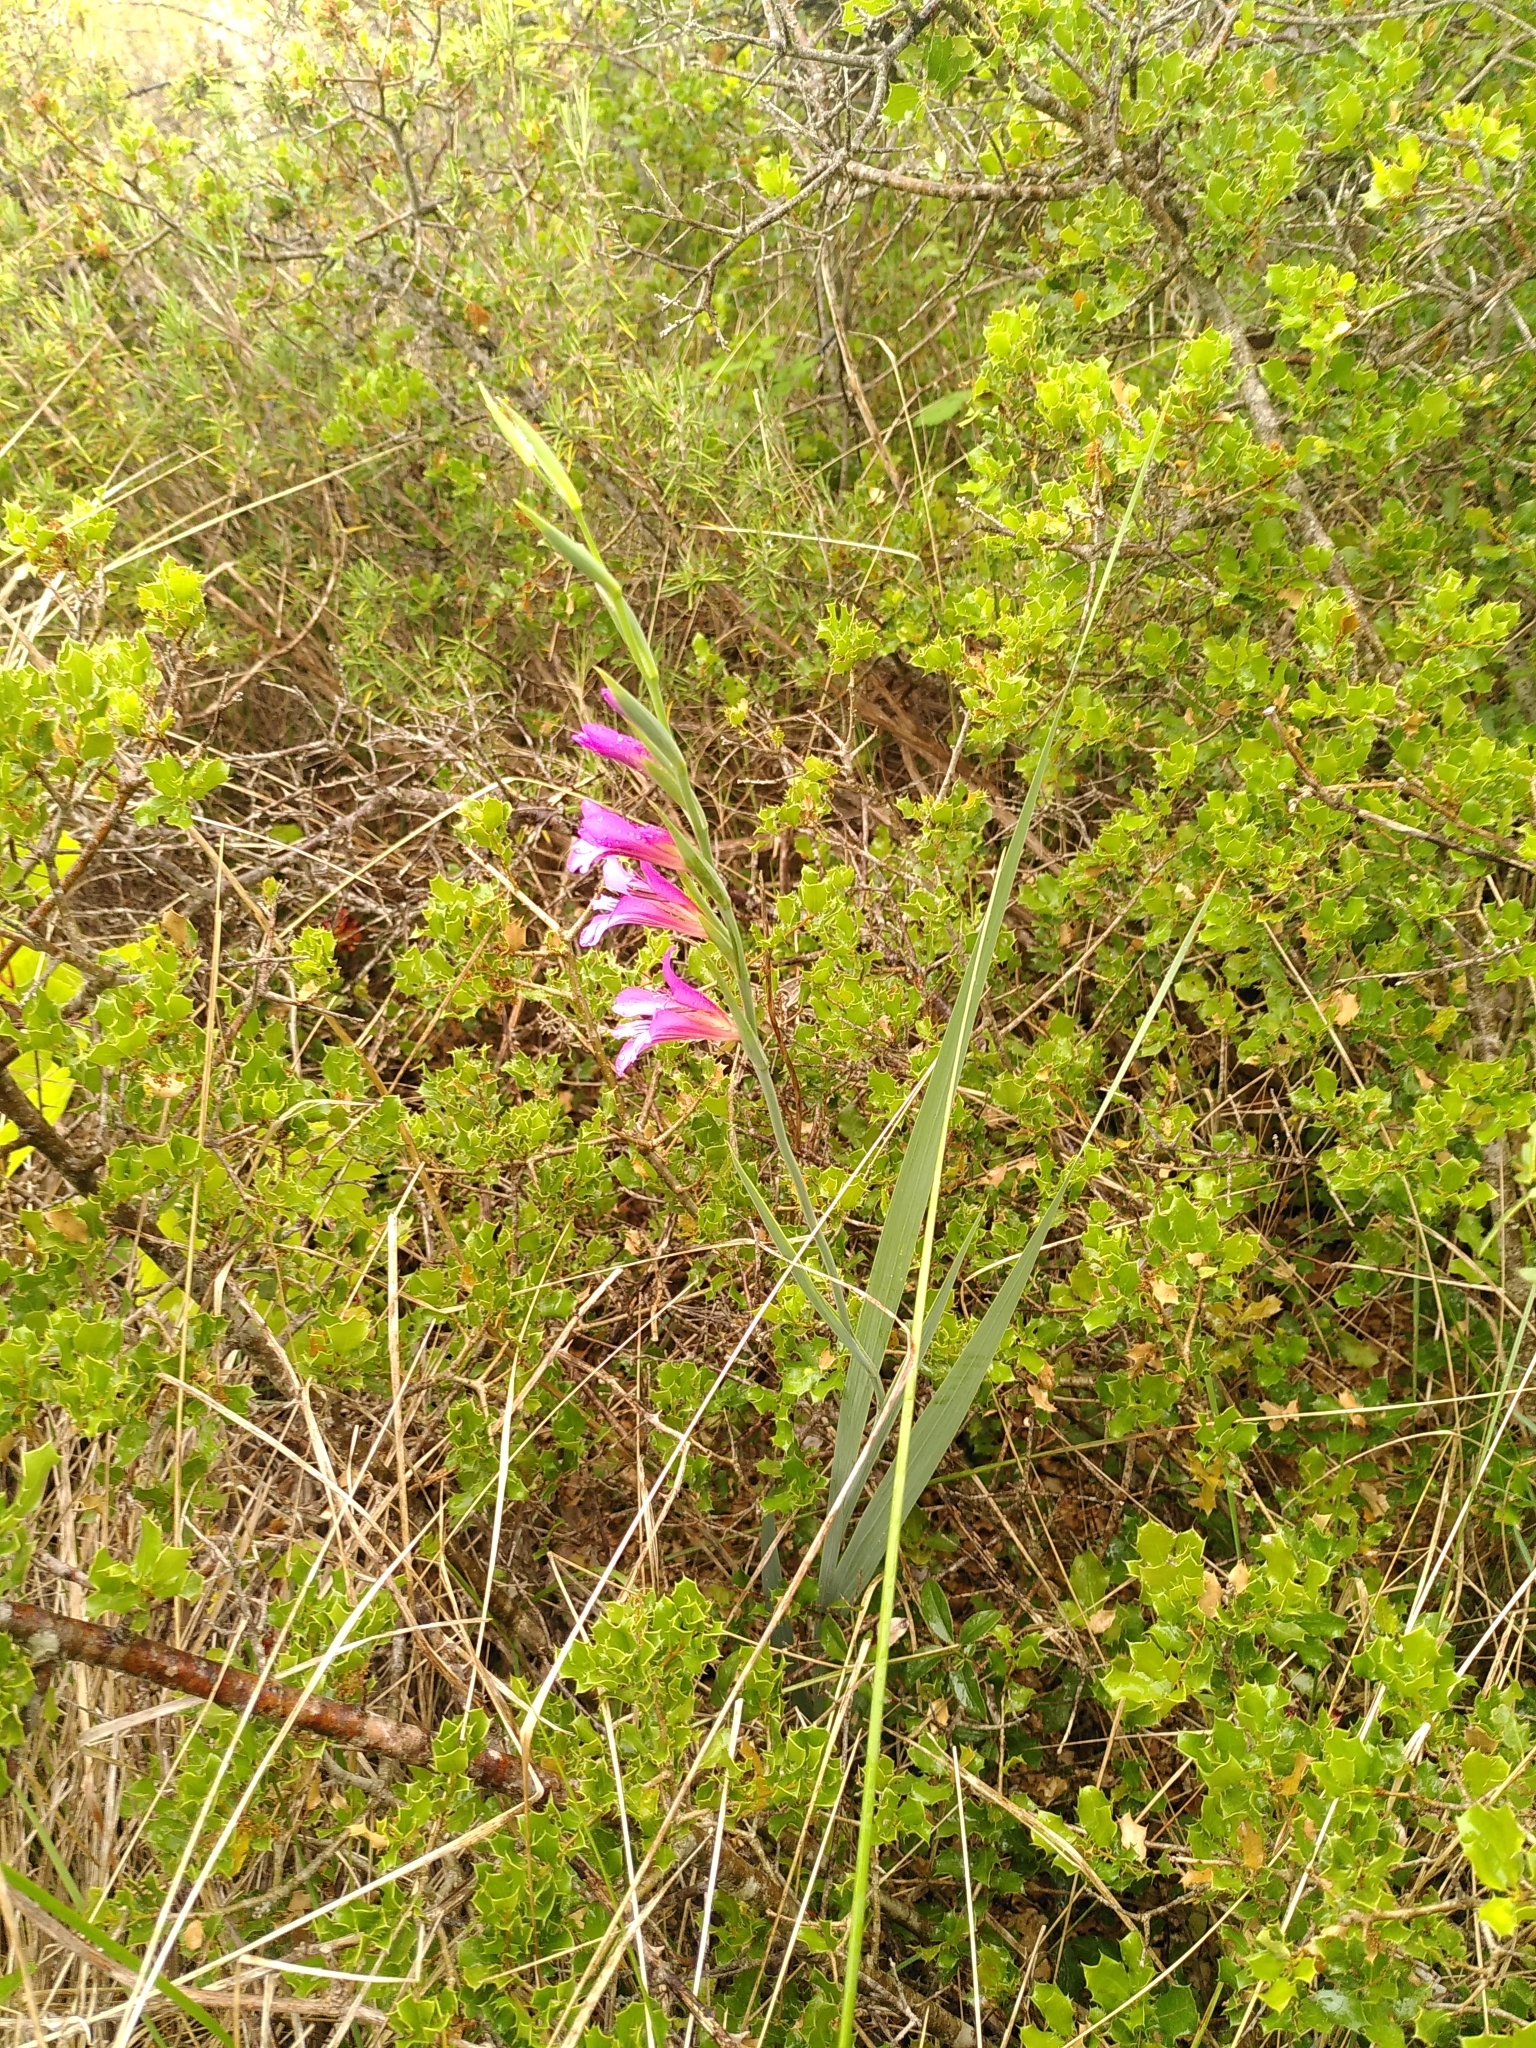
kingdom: Plantae
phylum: Tracheophyta
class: Liliopsida
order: Asparagales
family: Iridaceae
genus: Gladiolus
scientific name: Gladiolus dubius
